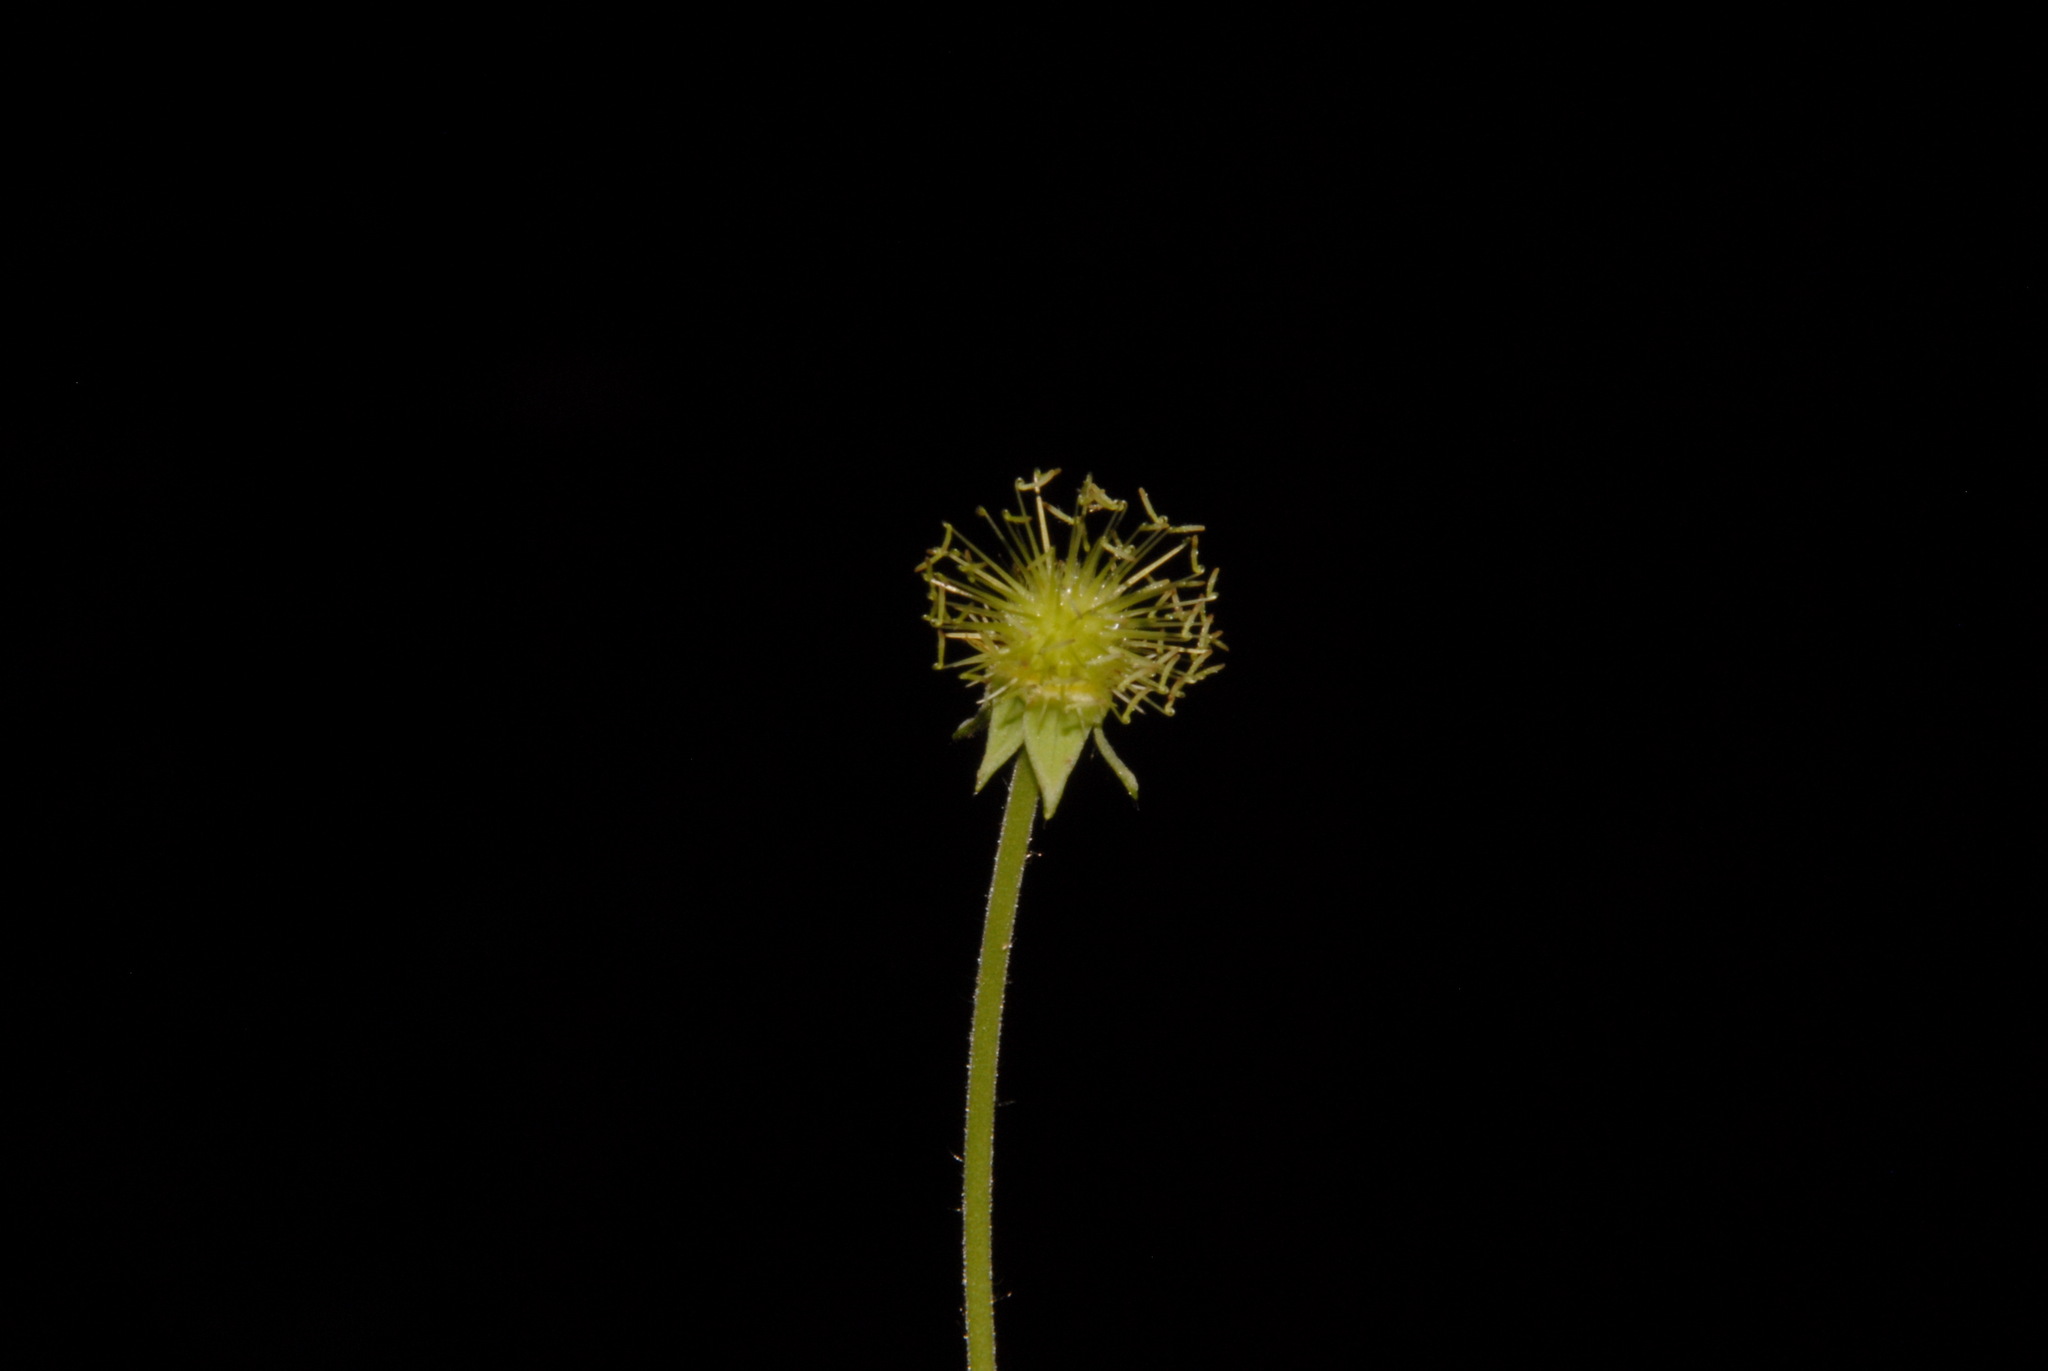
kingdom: Plantae
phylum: Tracheophyta
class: Magnoliopsida
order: Rosales
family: Rosaceae
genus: Geum
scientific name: Geum virginianum
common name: Cream avens
